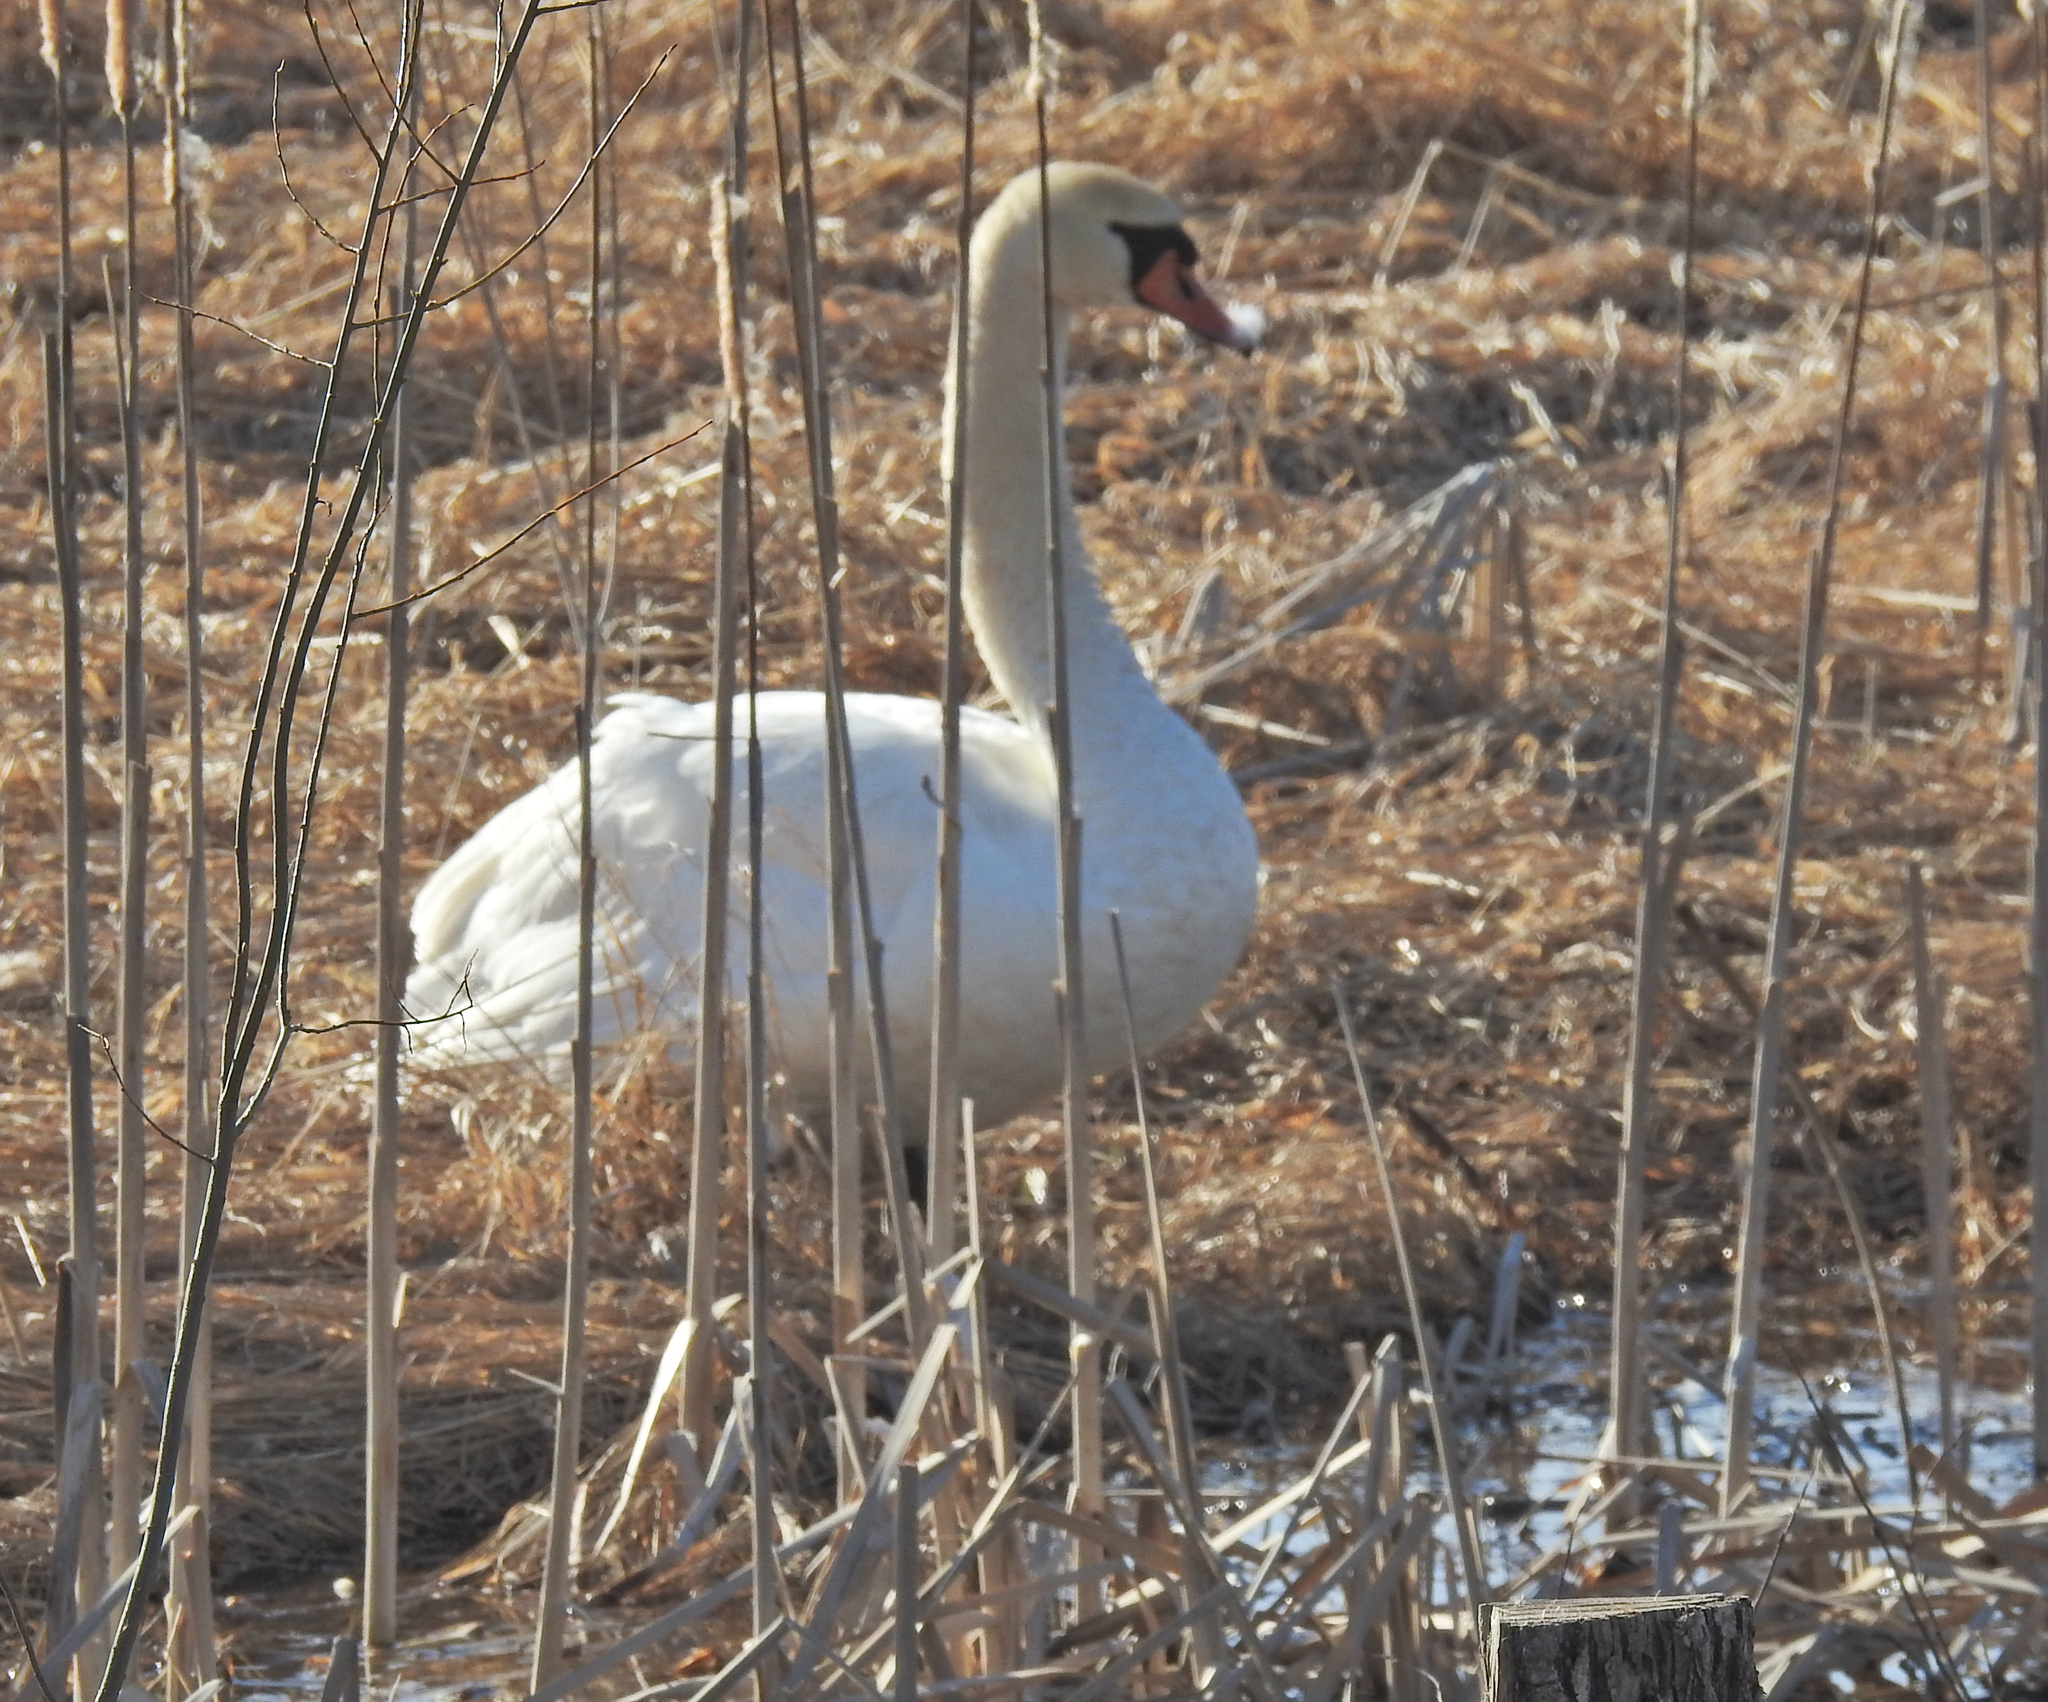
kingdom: Animalia
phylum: Chordata
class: Aves
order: Anseriformes
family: Anatidae
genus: Cygnus
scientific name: Cygnus olor
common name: Mute swan
